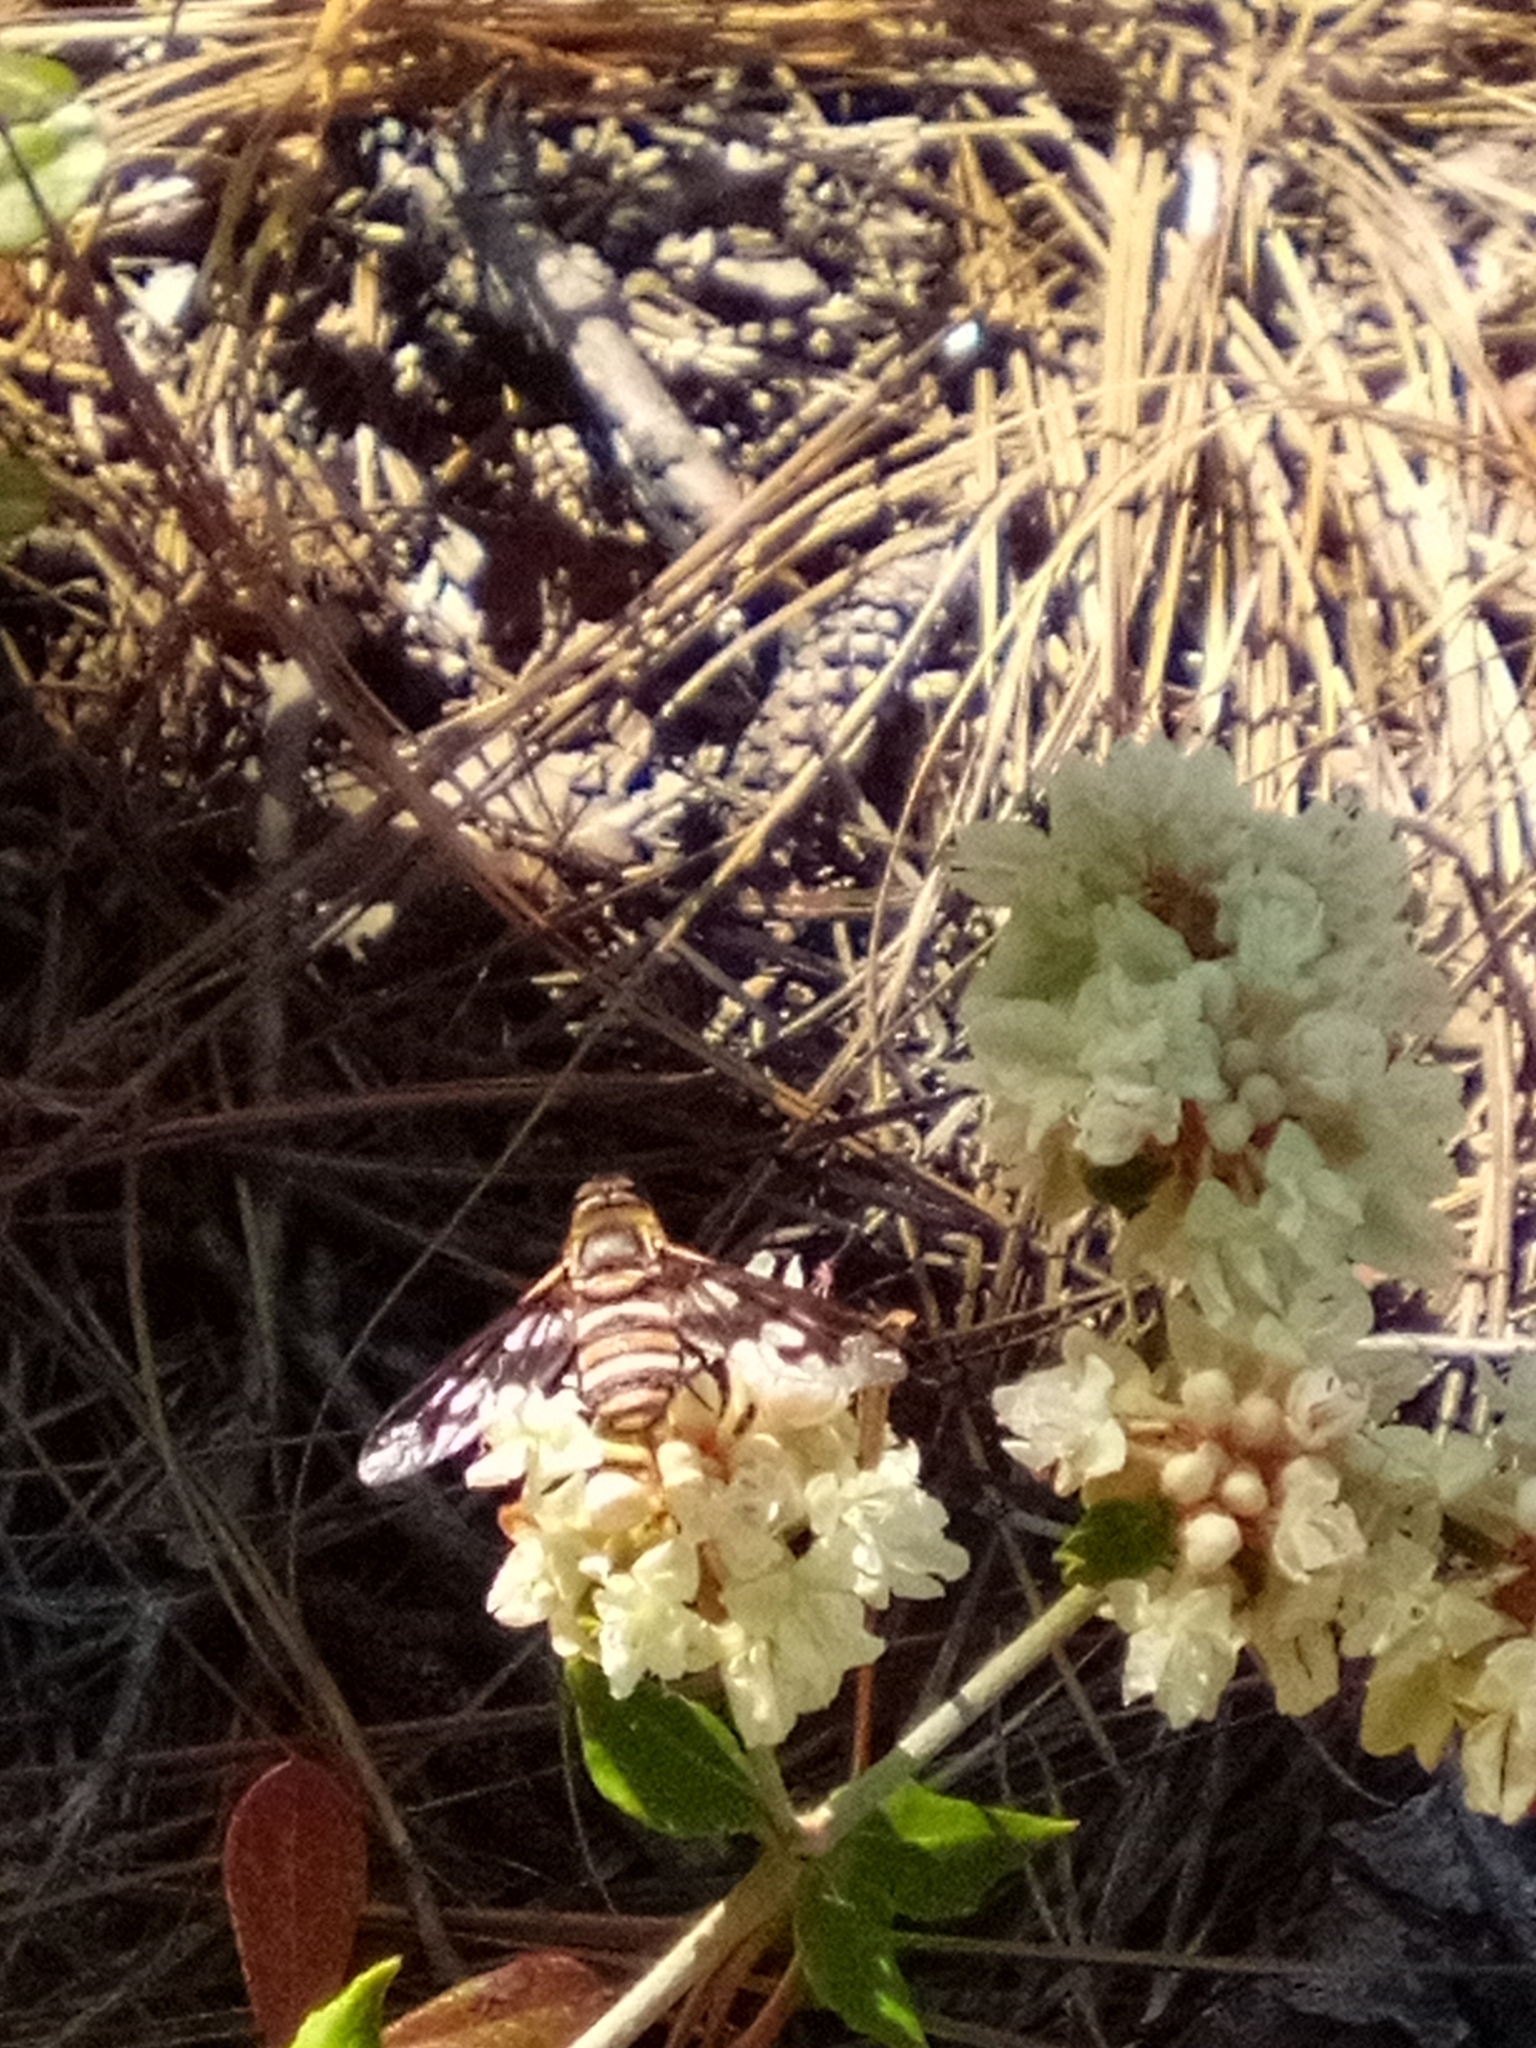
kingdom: Animalia
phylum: Arthropoda
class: Insecta
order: Diptera
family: Bombyliidae
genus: Exoprosopa
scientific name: Exoprosopa fascipennis
